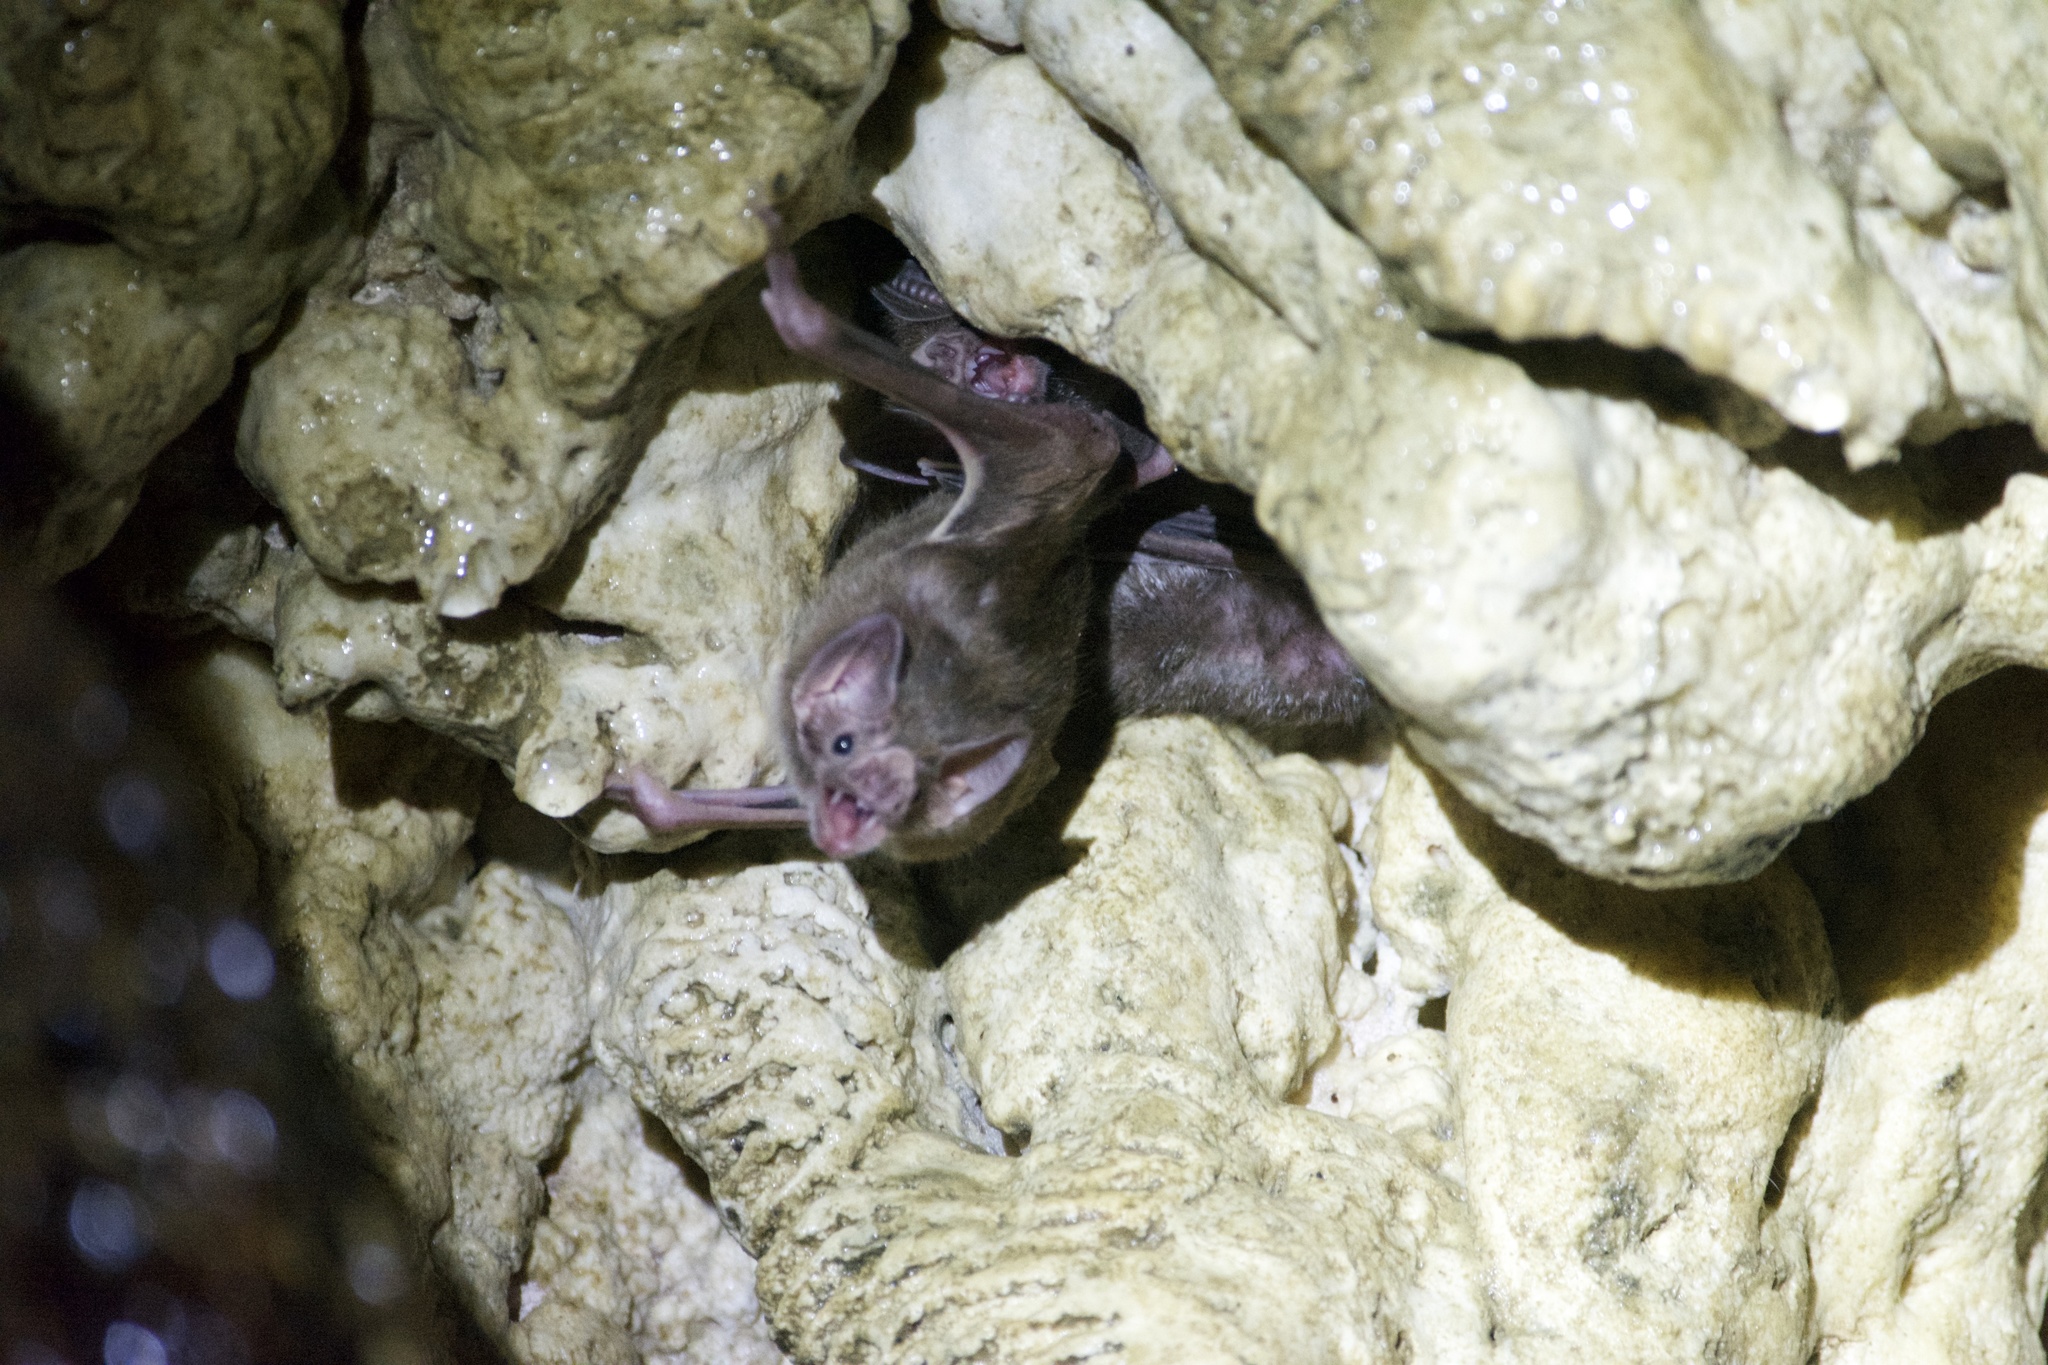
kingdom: Animalia
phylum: Chordata
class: Mammalia
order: Chiroptera
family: Phyllostomidae
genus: Desmodus
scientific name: Desmodus rotundus
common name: Common vampire bat
